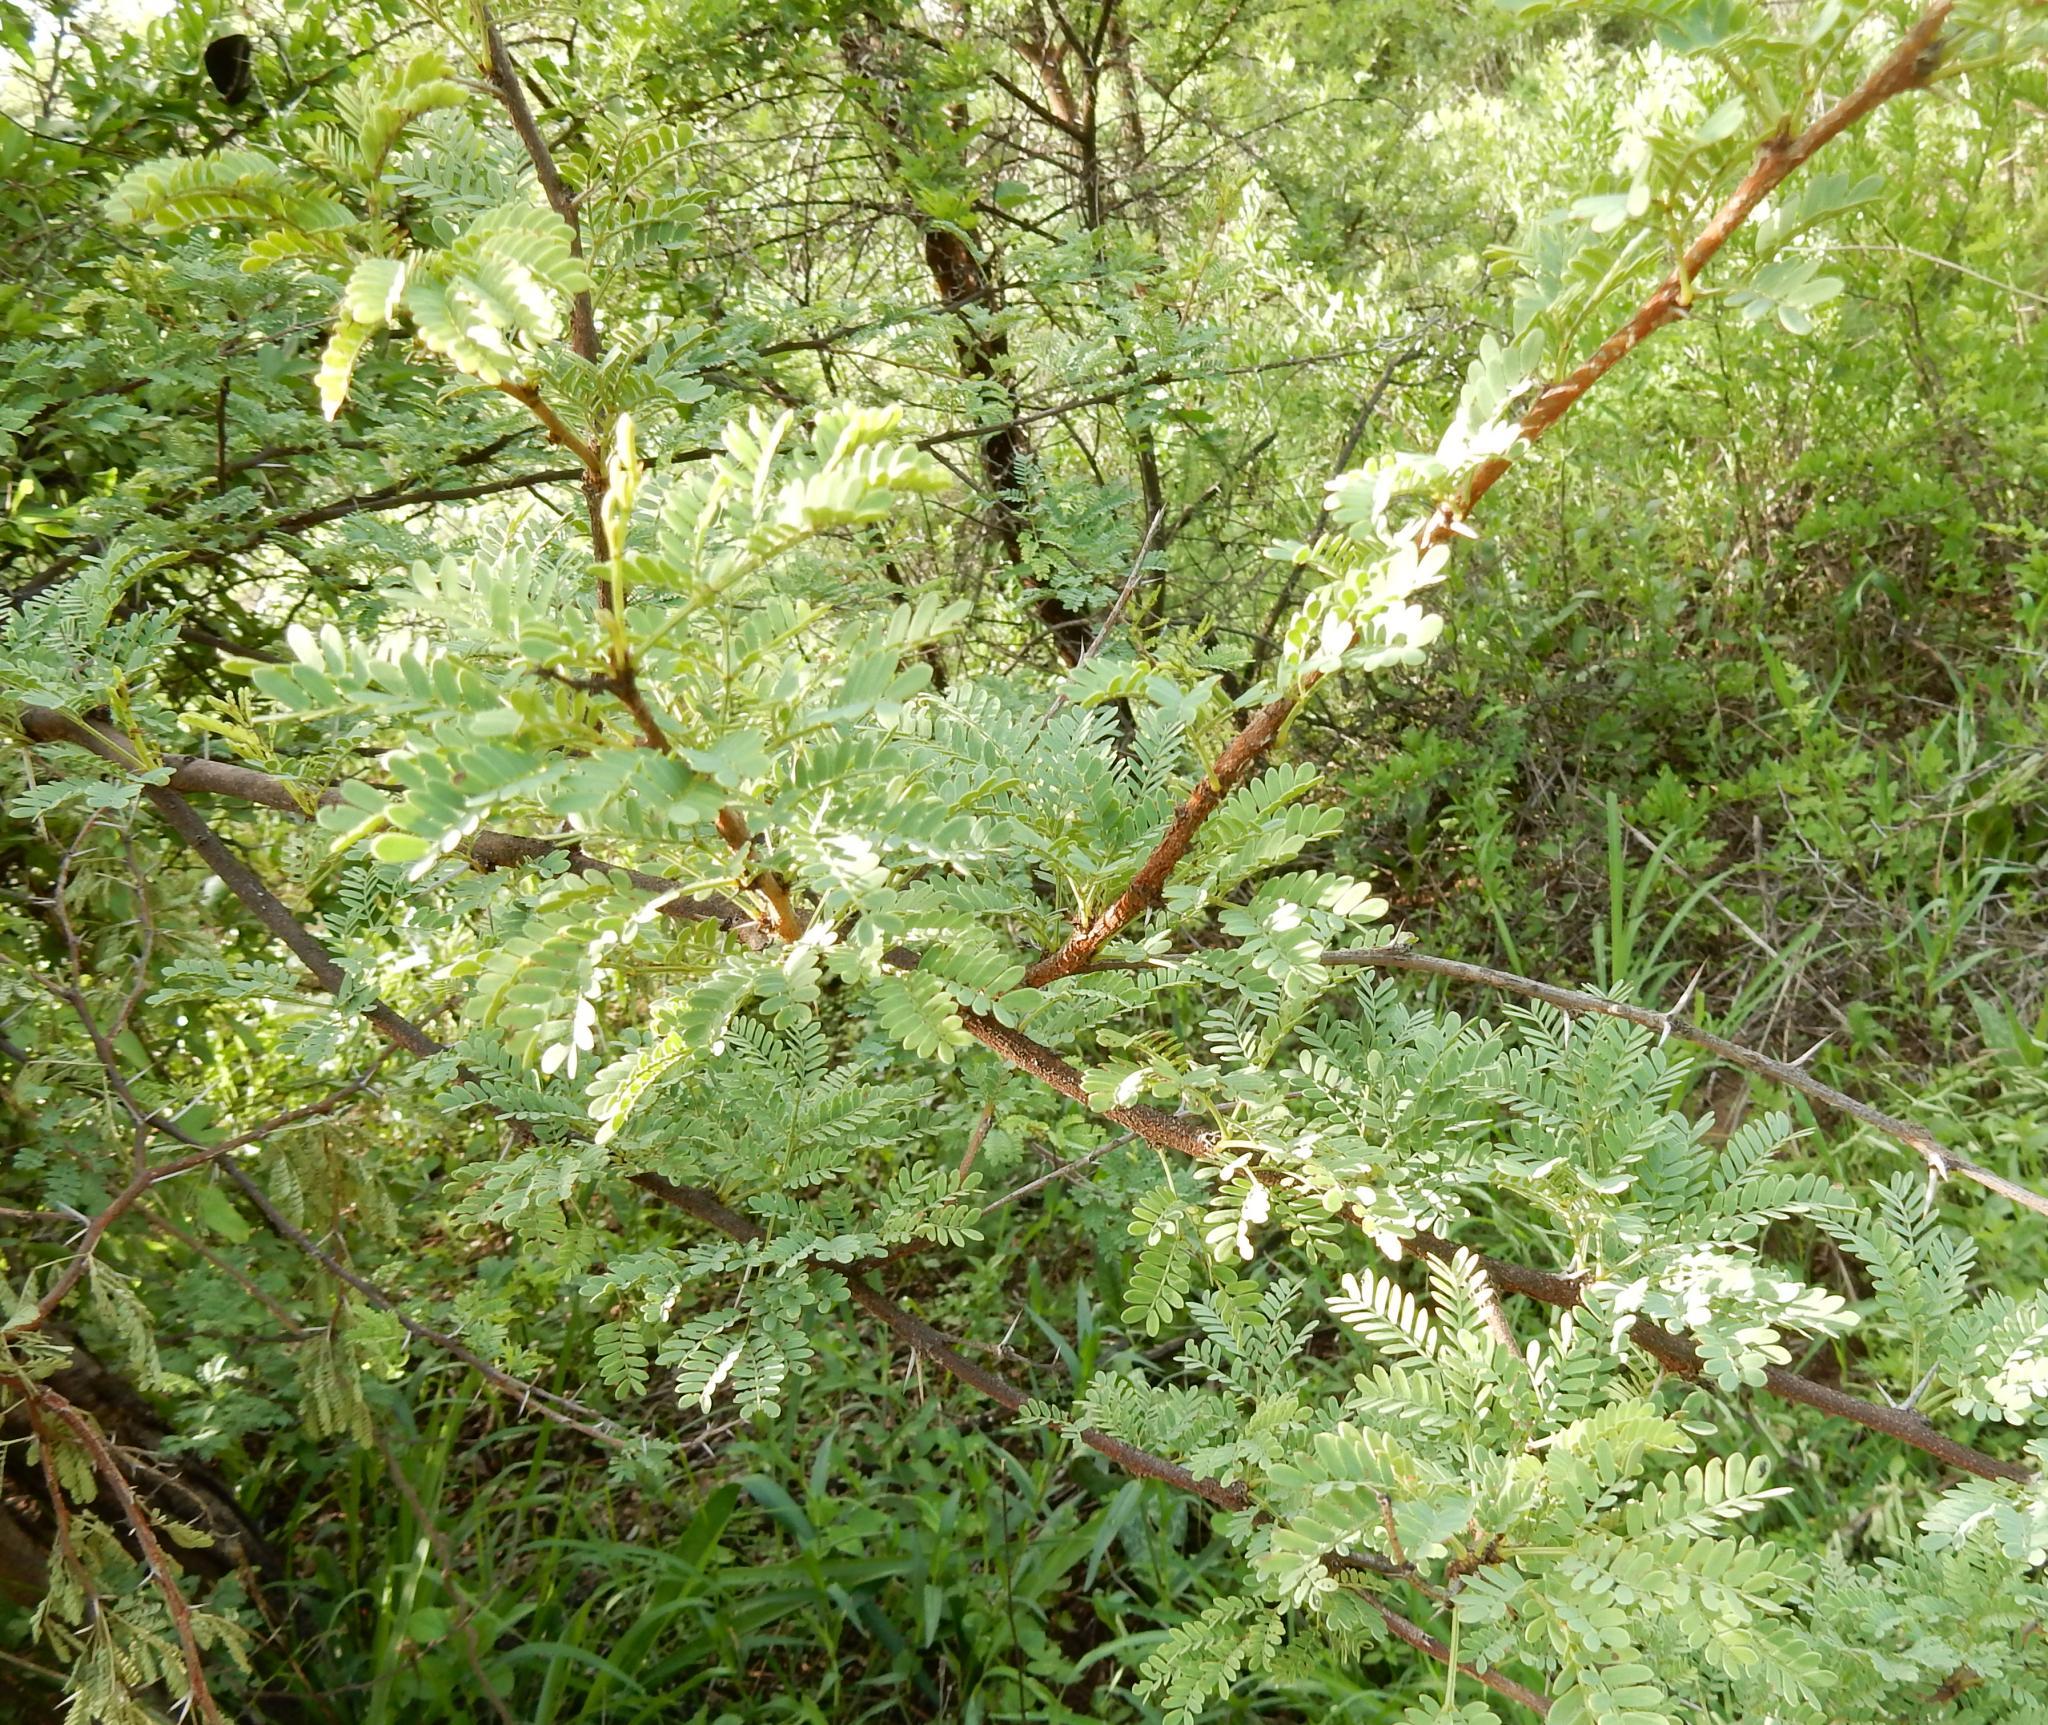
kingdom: Plantae
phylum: Tracheophyta
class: Magnoliopsida
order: Fabales
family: Fabaceae
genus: Vachellia
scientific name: Vachellia karroo
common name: Sweet thorn
